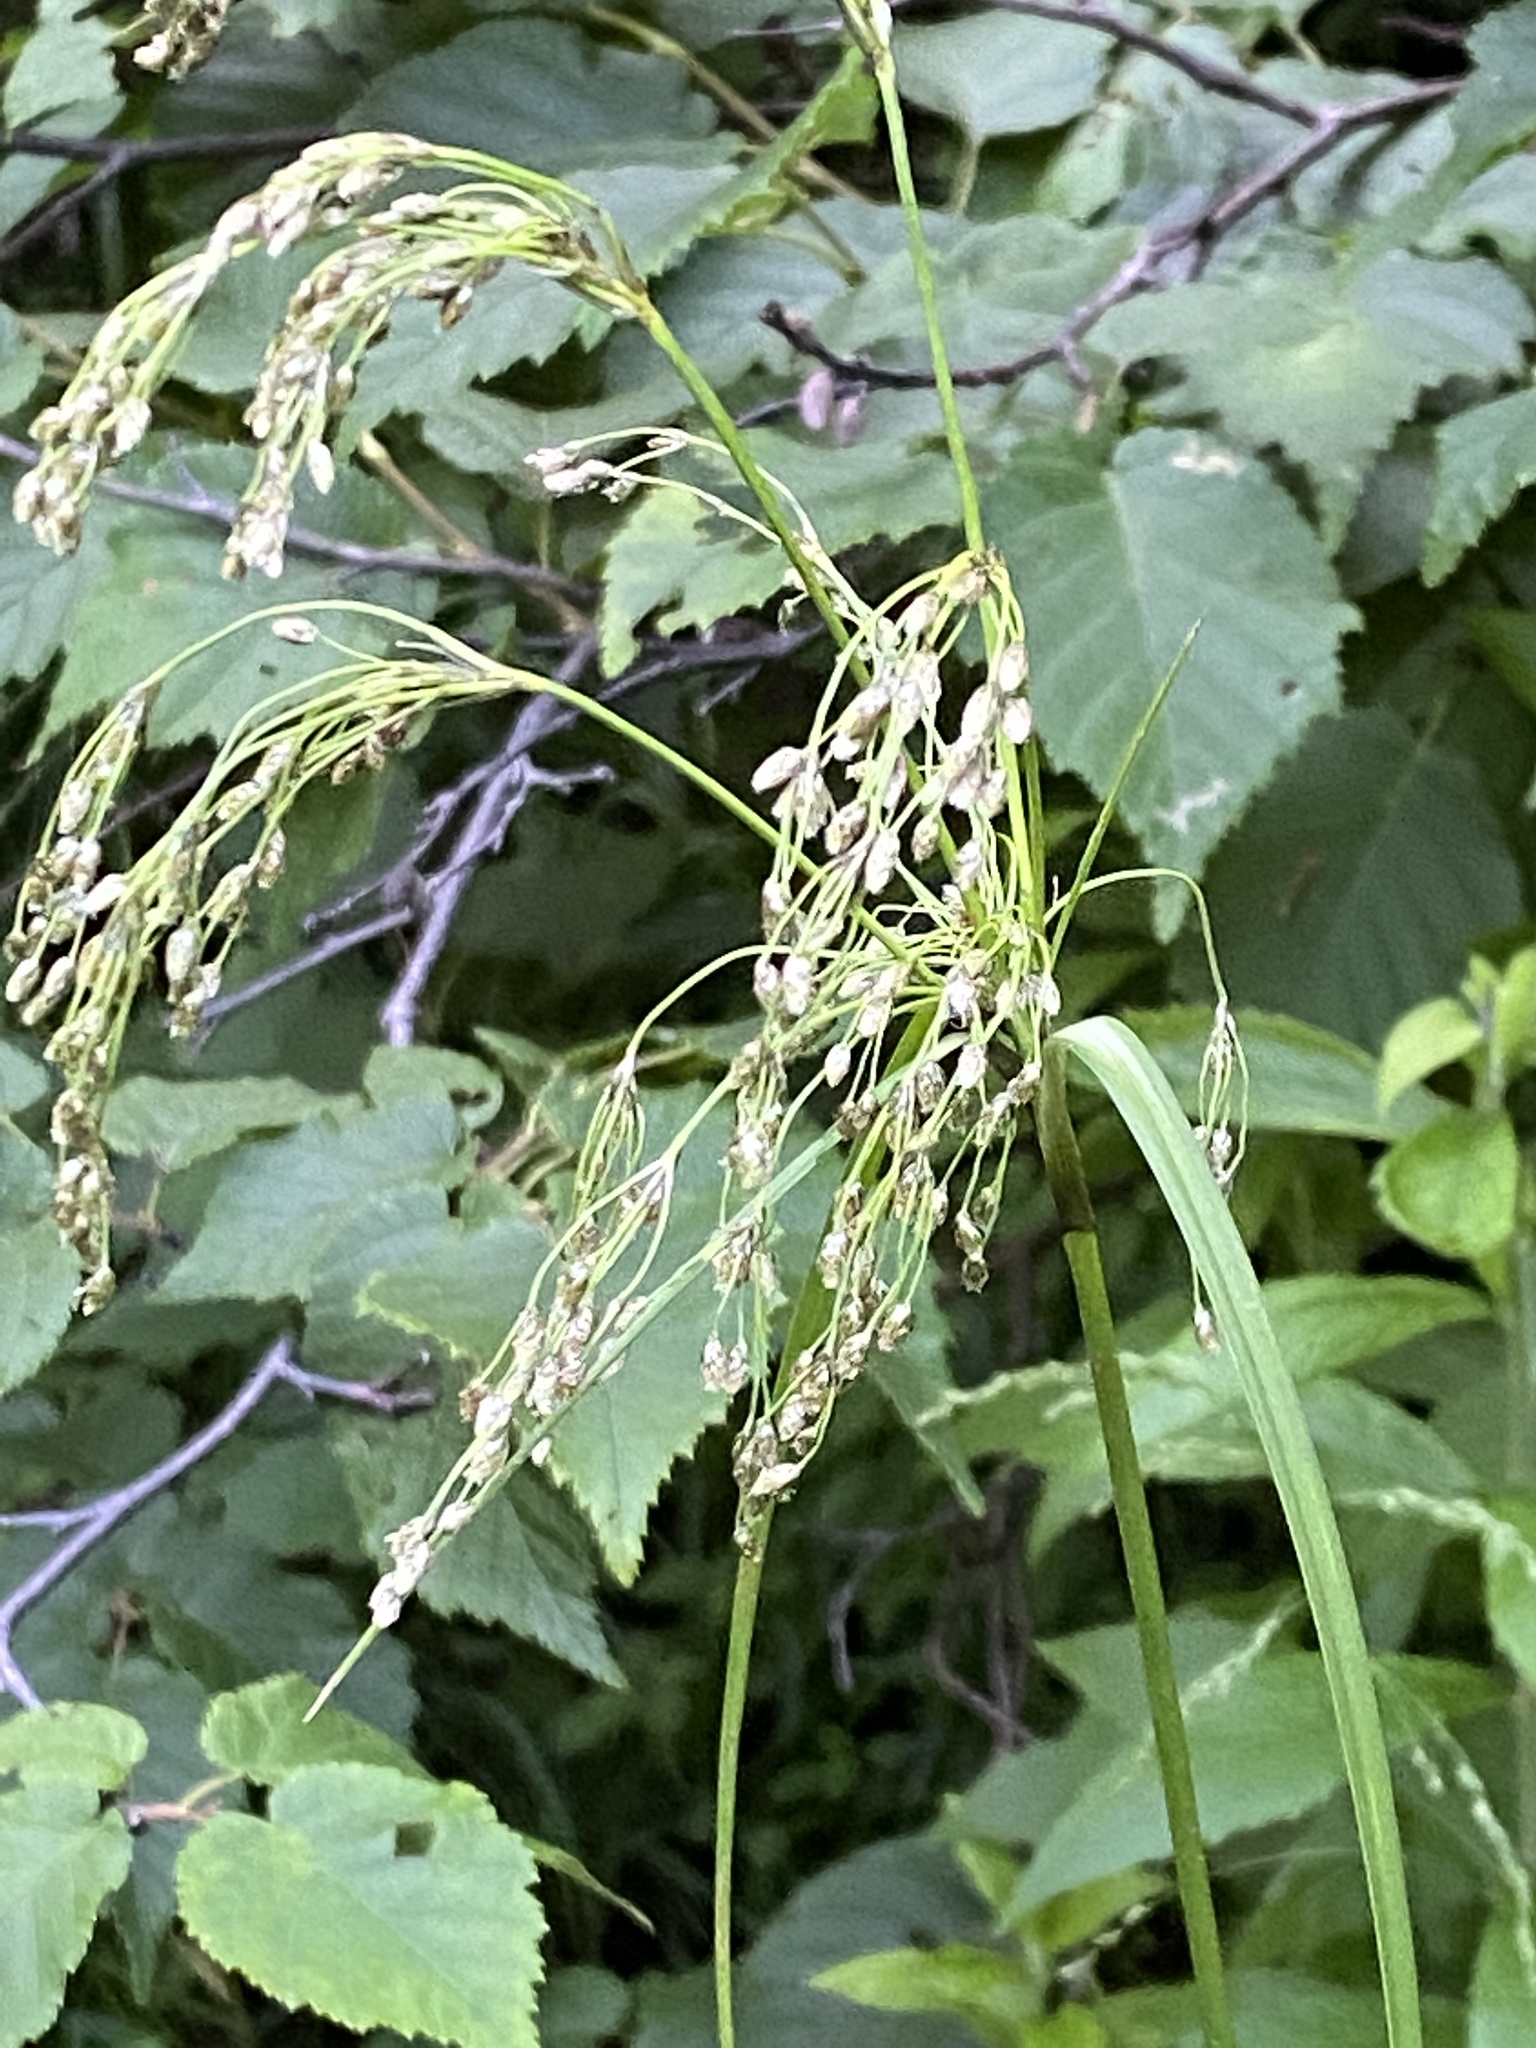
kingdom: Plantae
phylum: Tracheophyta
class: Liliopsida
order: Poales
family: Cyperaceae
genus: Scirpus
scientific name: Scirpus atrocinctus
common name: Black-girdled bulrush
